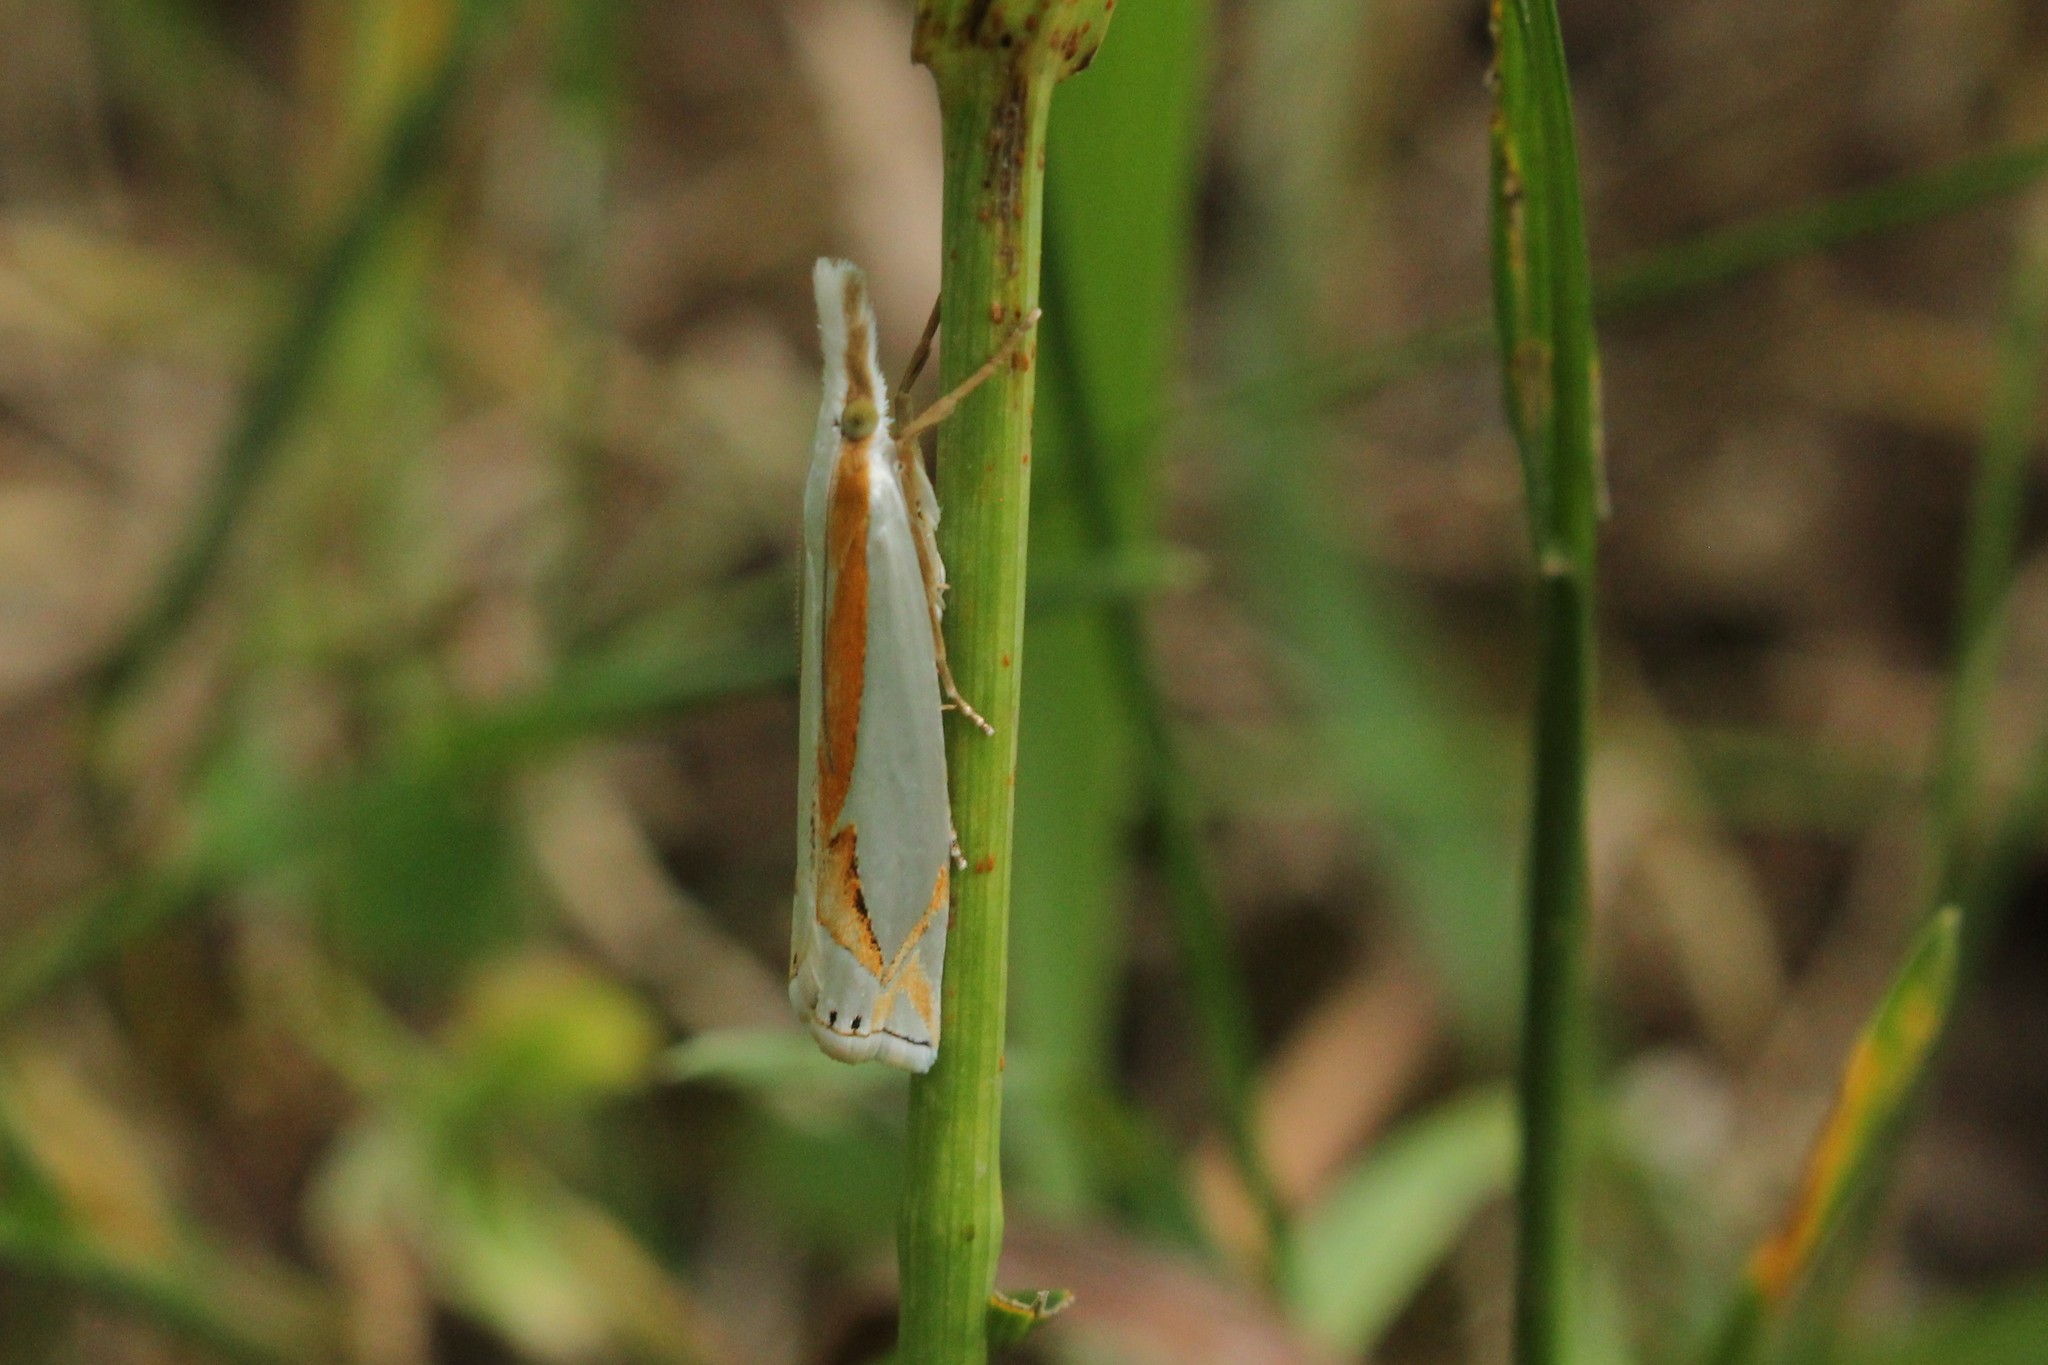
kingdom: Animalia
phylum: Arthropoda
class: Insecta
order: Lepidoptera
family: Crambidae
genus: Crambus
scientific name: Crambus girardellus
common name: Girard's grass-veneer
